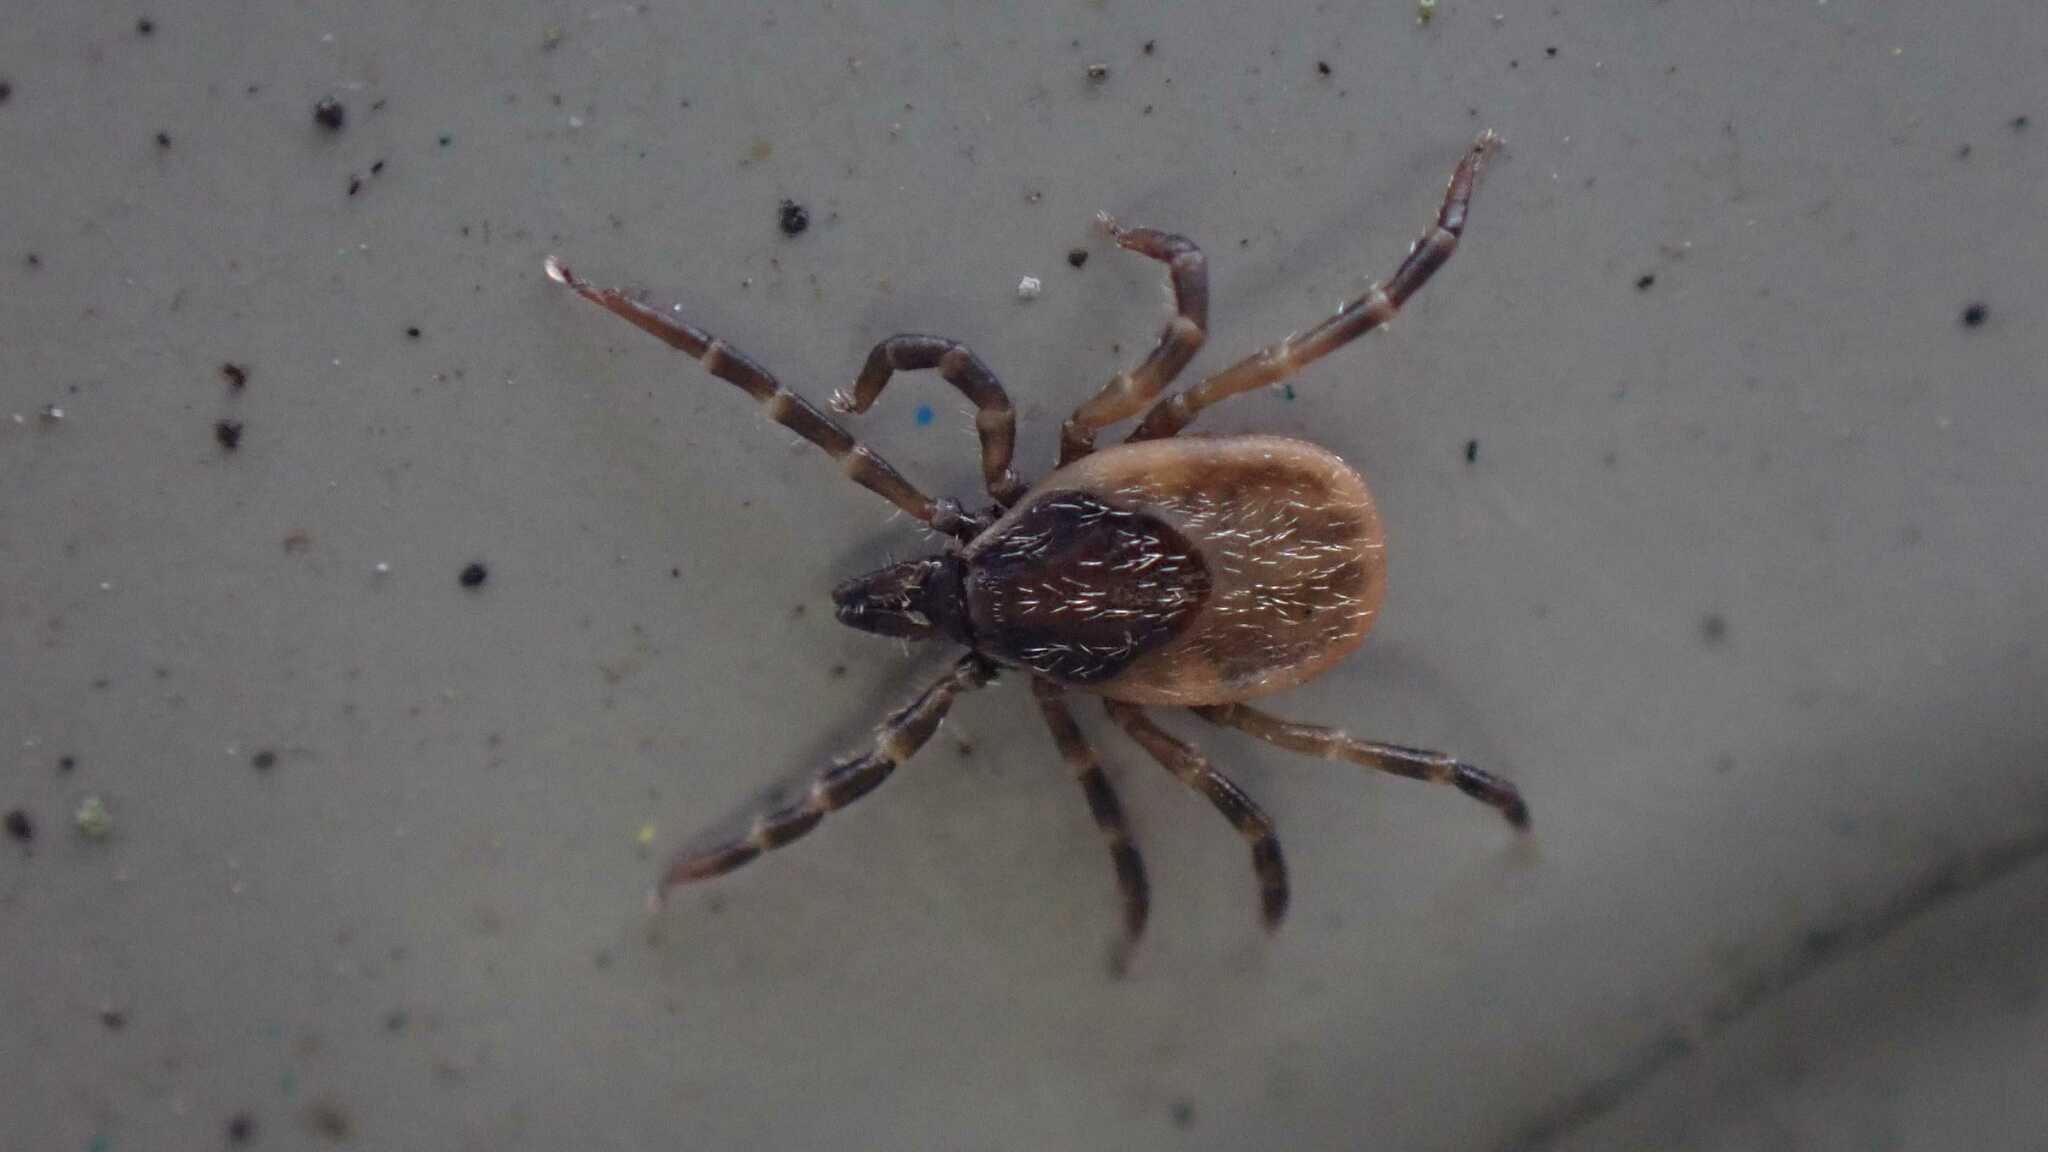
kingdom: Animalia
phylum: Arthropoda
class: Arachnida
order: Ixodida
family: Ixodidae
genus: Ixodes
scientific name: Ixodes frontalis
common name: Passerine tick
